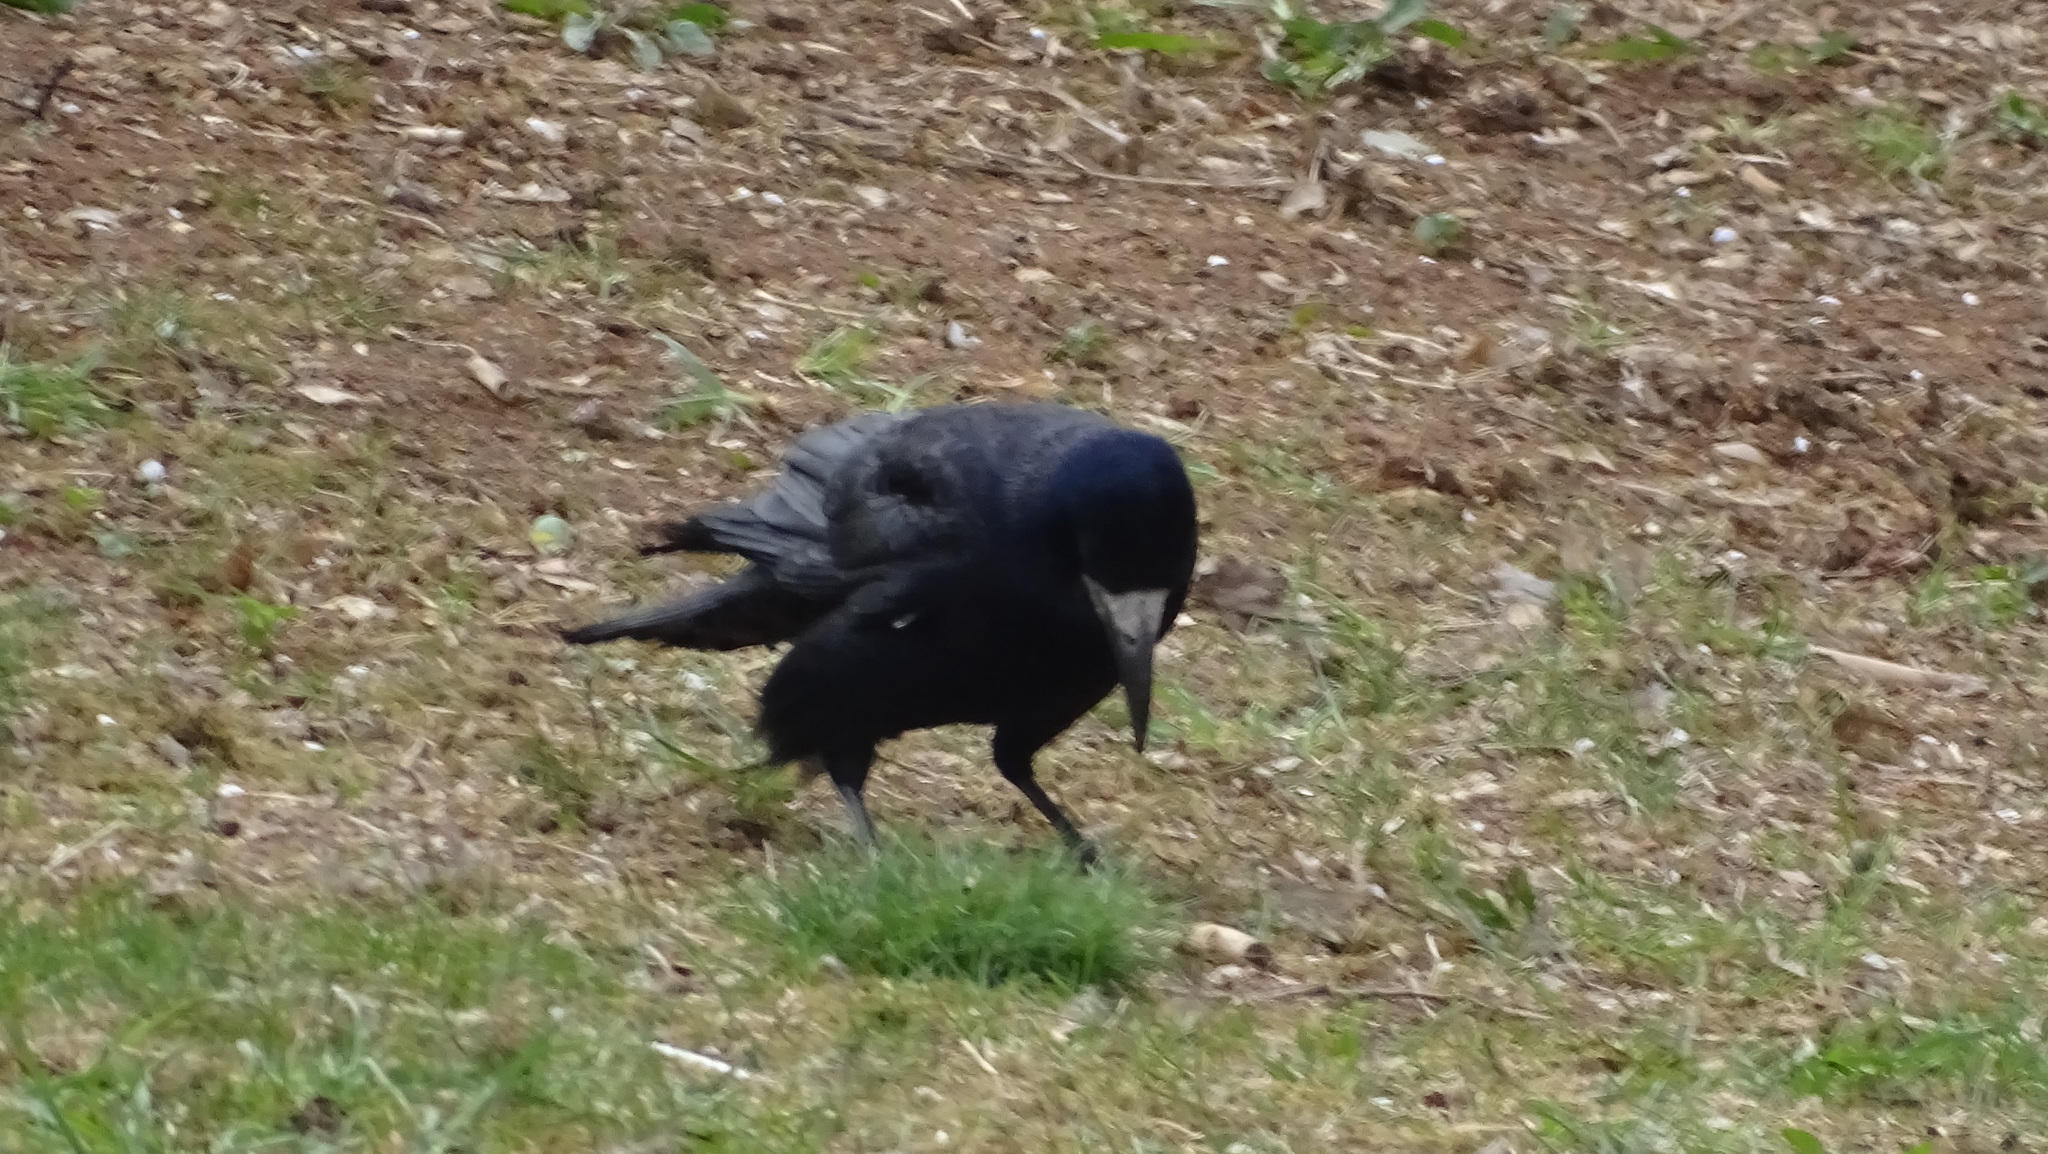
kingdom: Animalia
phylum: Chordata
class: Aves
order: Passeriformes
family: Corvidae
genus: Corvus
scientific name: Corvus frugilegus
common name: Rook
